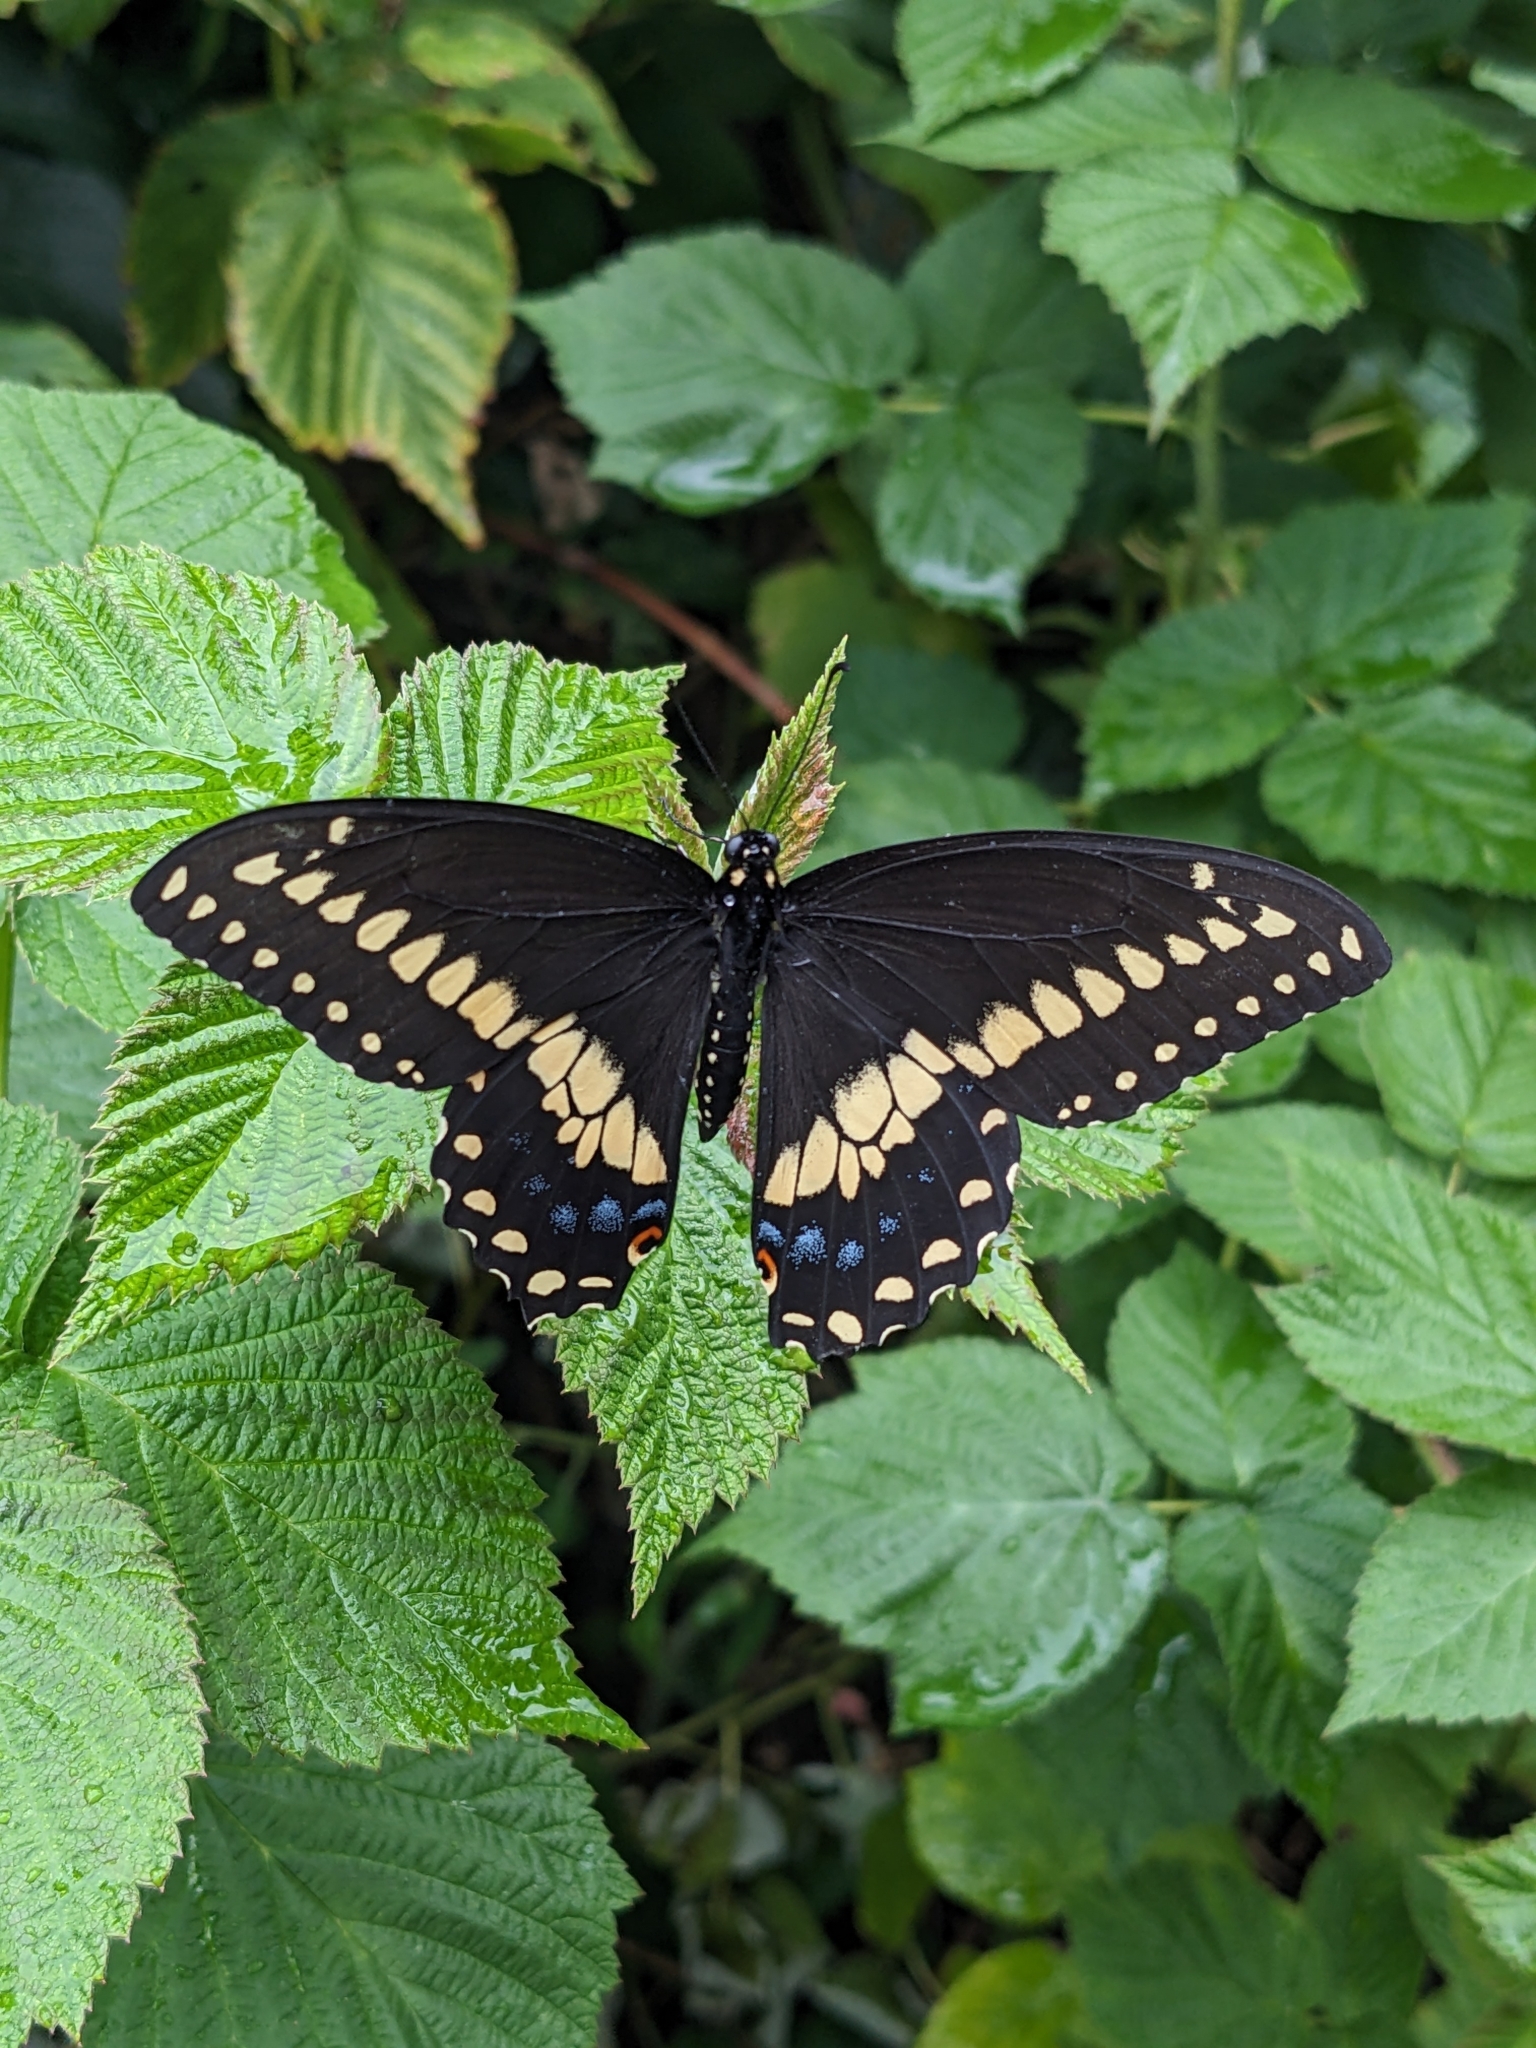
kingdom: Animalia
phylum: Arthropoda
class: Insecta
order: Lepidoptera
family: Papilionidae
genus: Papilio
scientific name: Papilio polyxenes
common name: Black swallowtail
